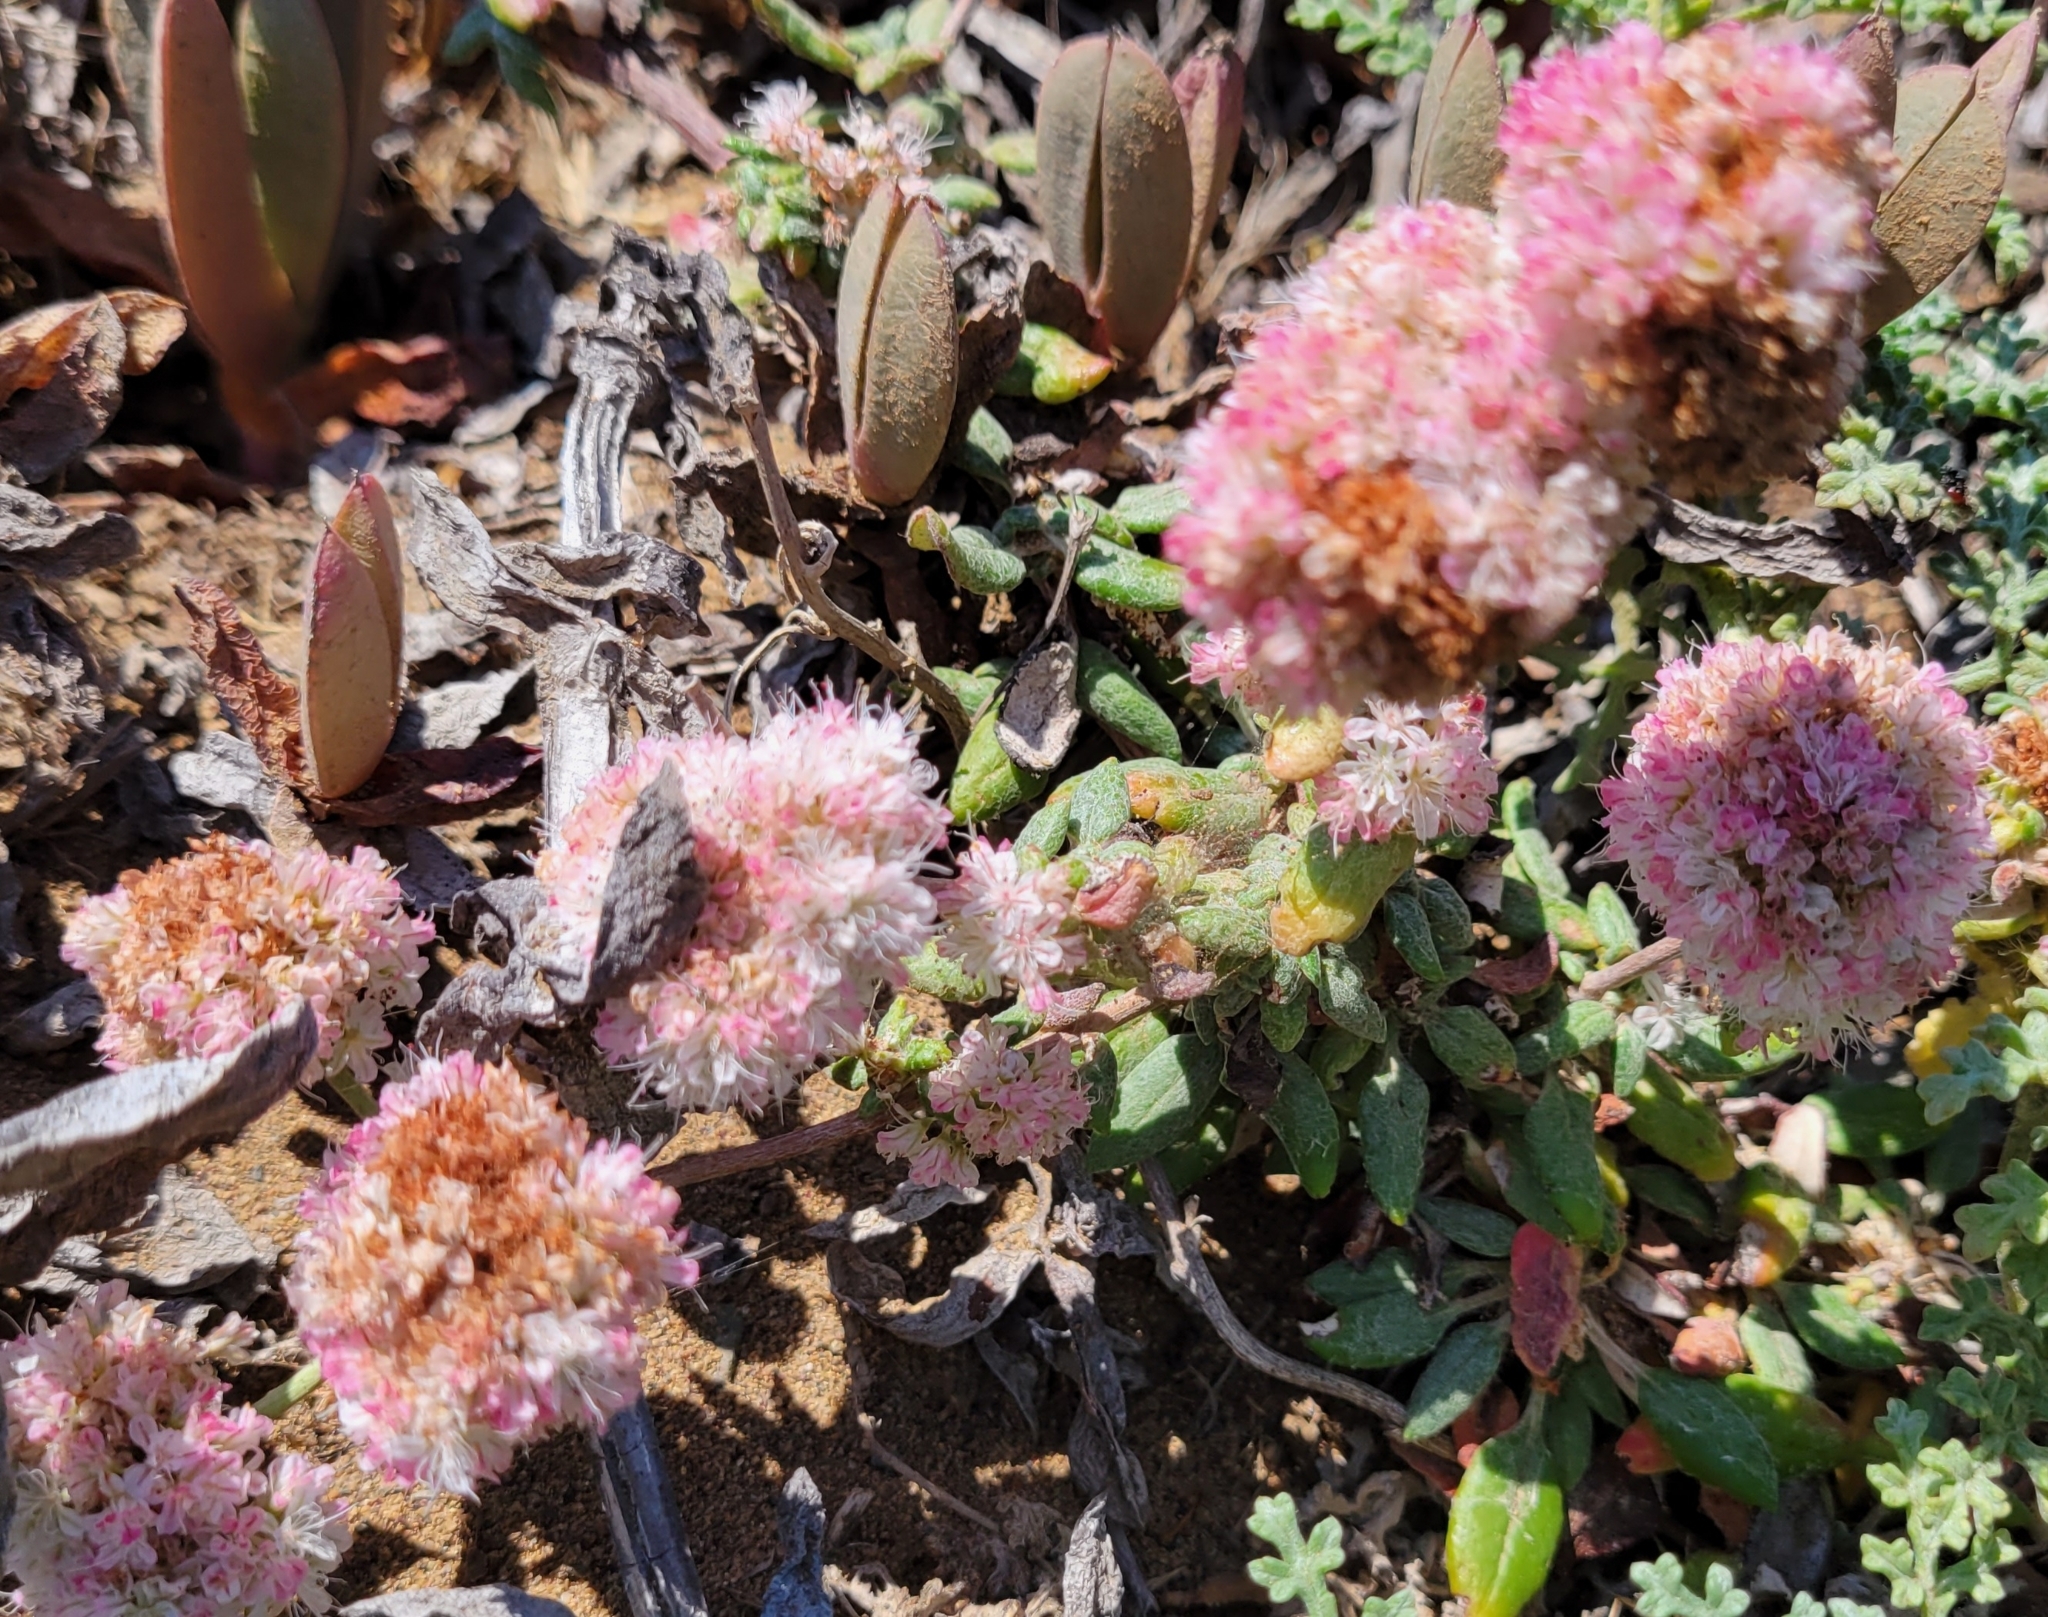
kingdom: Plantae
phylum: Tracheophyta
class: Magnoliopsida
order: Caryophyllales
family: Polygonaceae
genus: Eriogonum
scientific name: Eriogonum parvifolium
